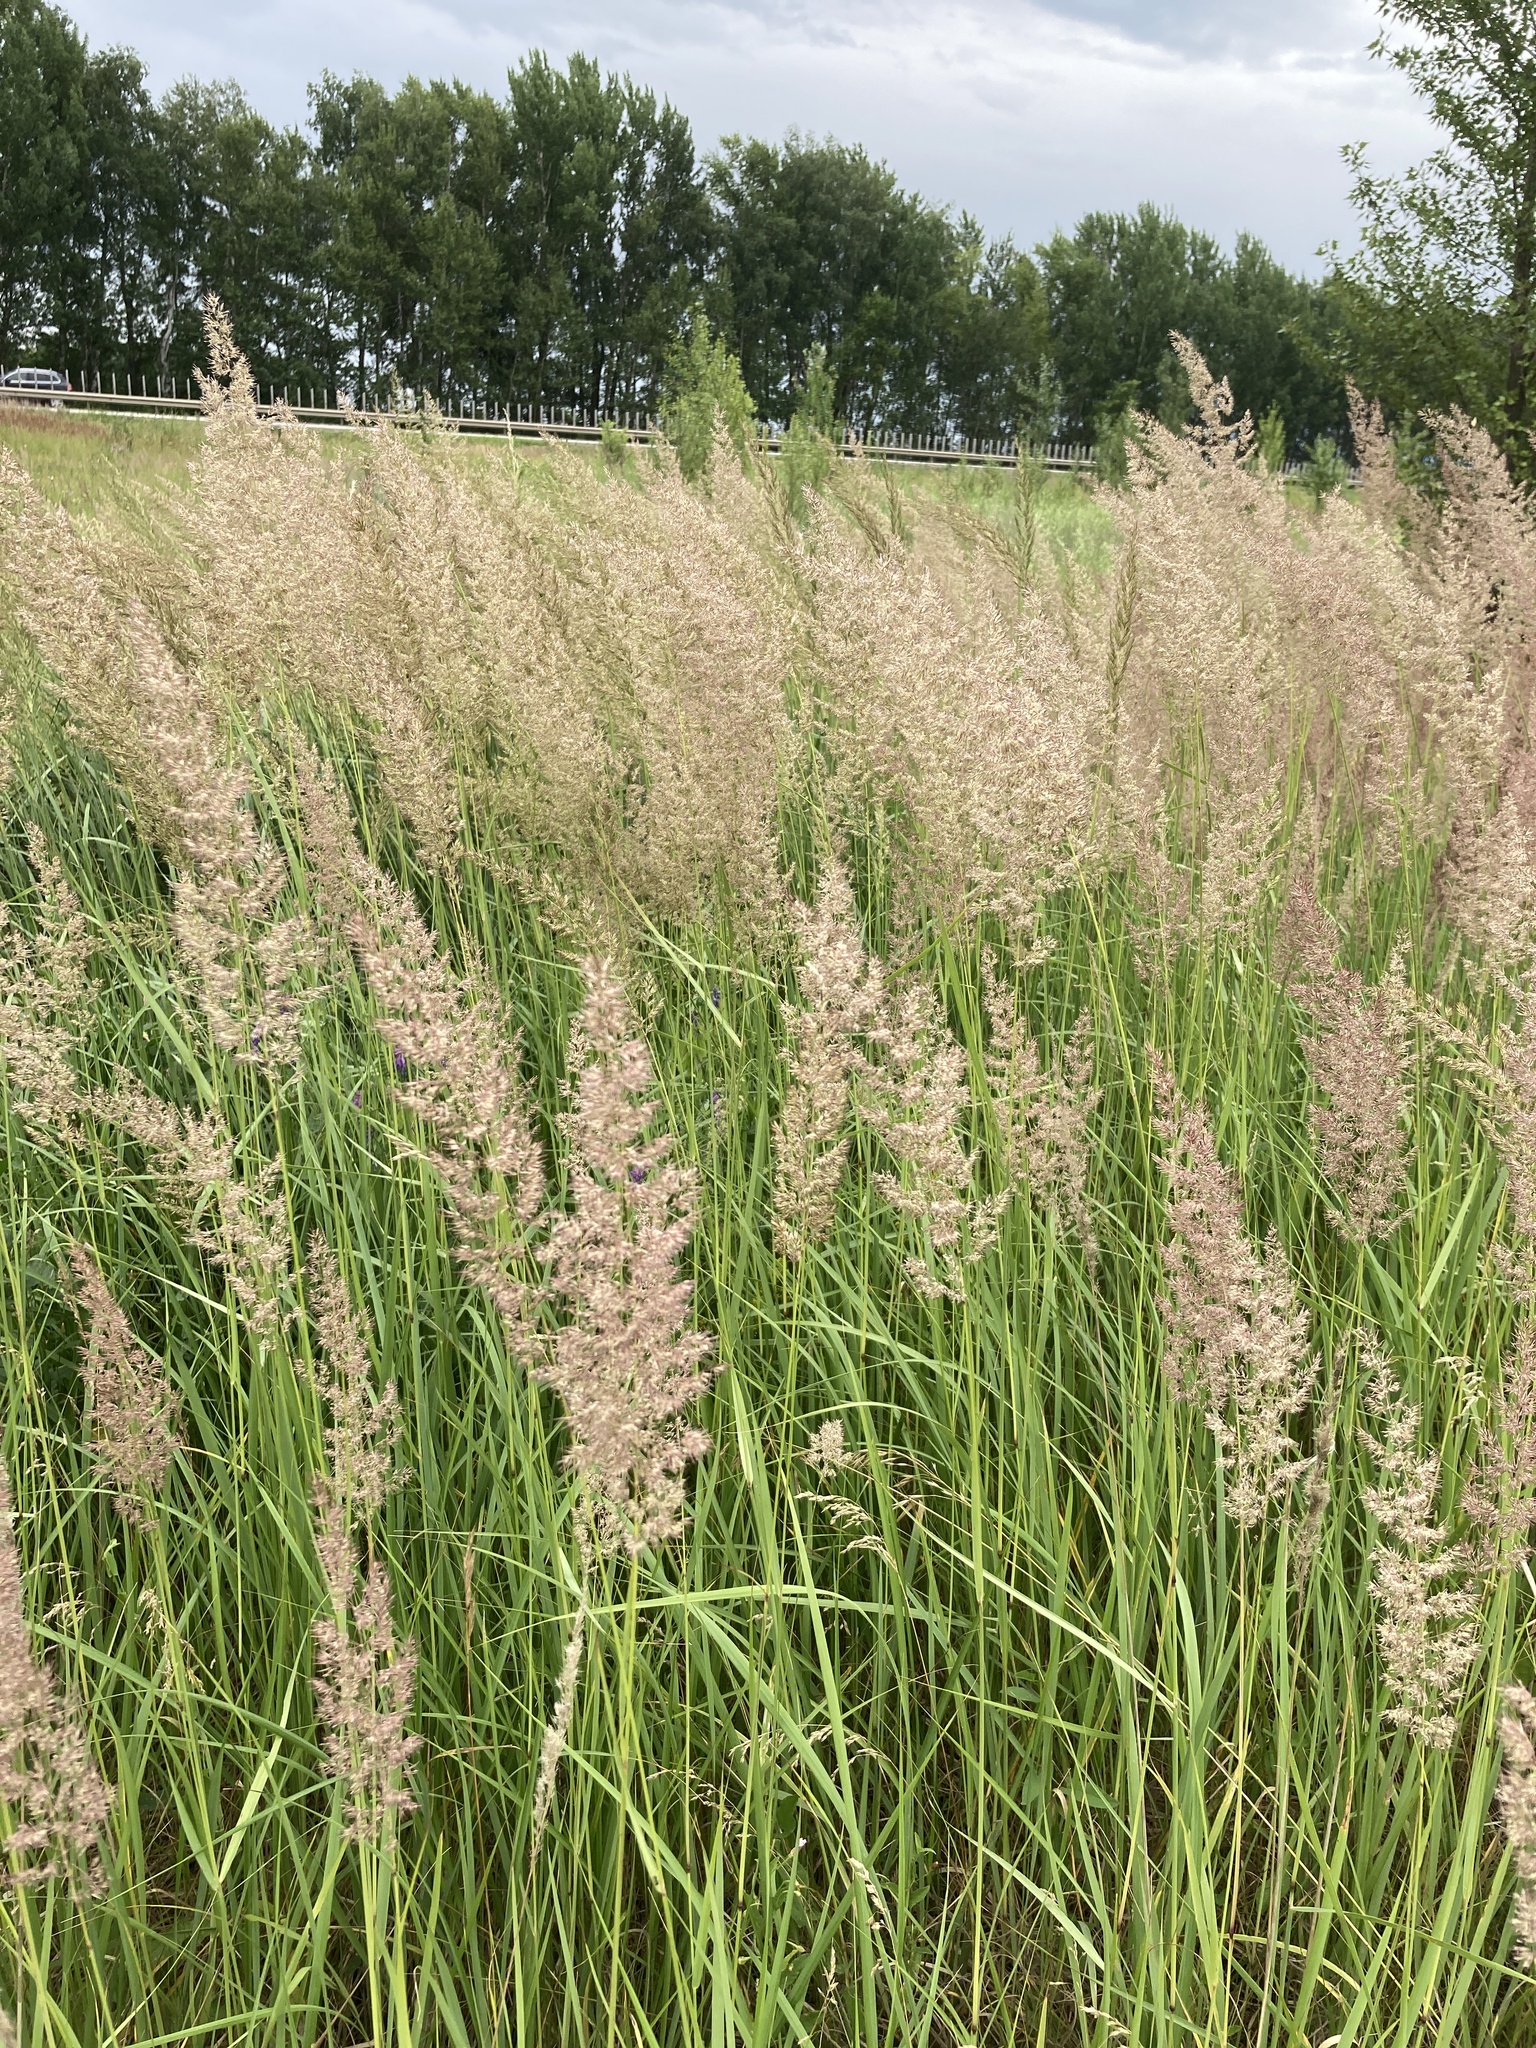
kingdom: Plantae
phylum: Tracheophyta
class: Liliopsida
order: Poales
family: Poaceae
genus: Calamagrostis
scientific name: Calamagrostis epigejos
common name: Wood small-reed
